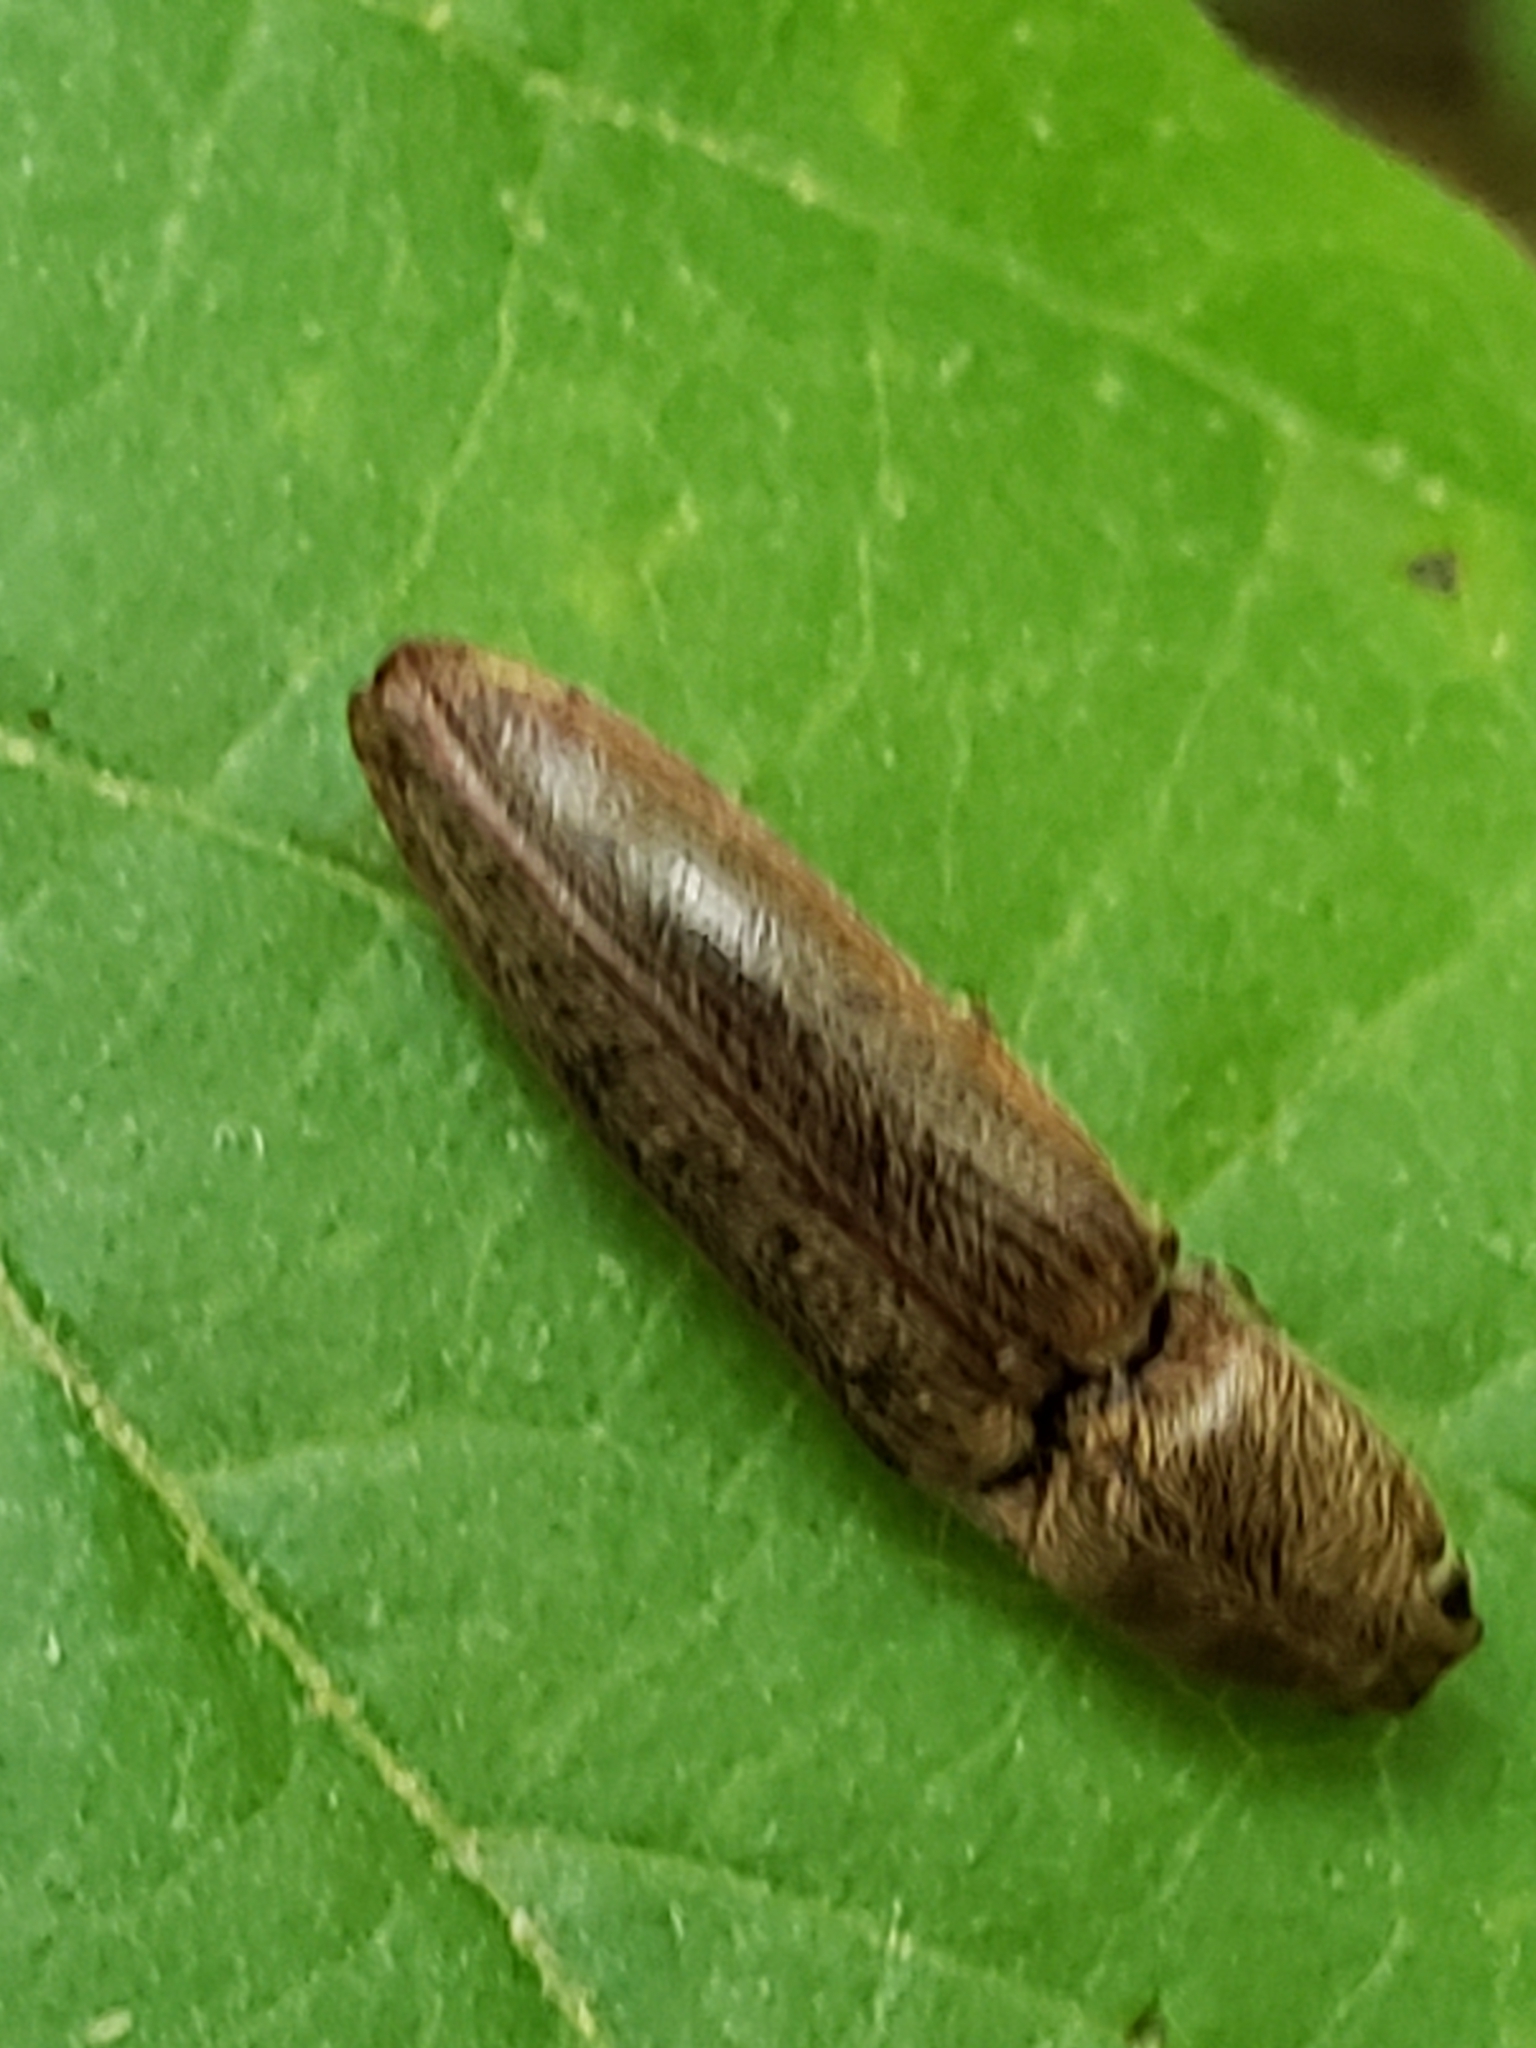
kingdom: Animalia
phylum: Arthropoda
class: Insecta
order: Coleoptera
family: Elateridae
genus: Gambrinus
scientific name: Gambrinus griseus
